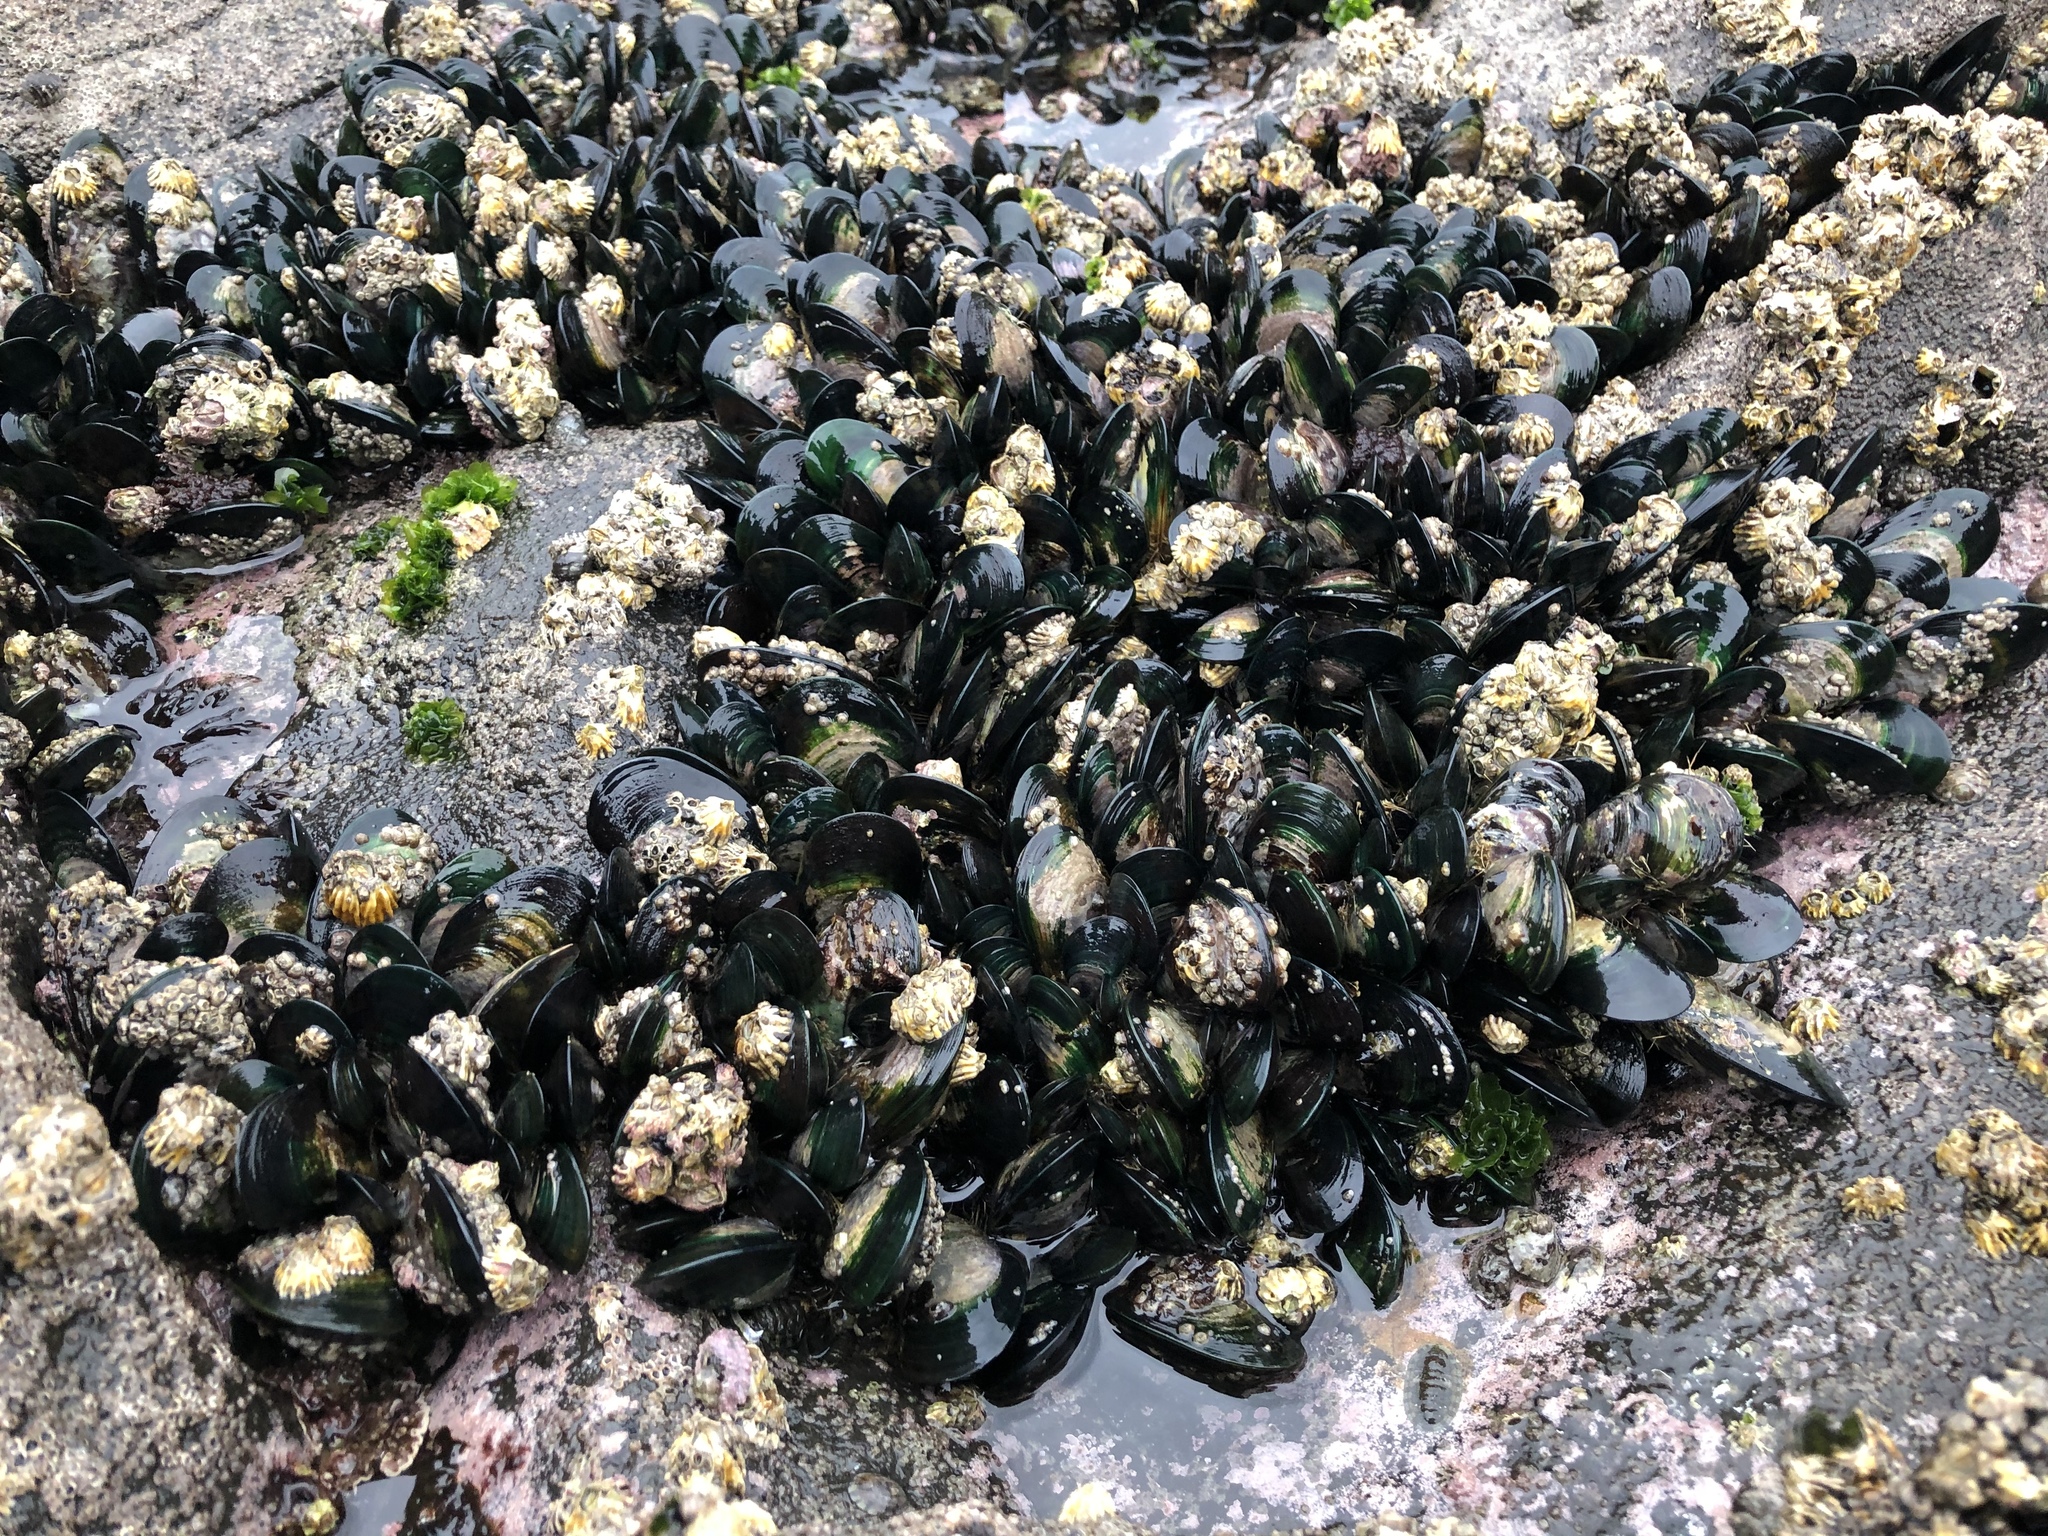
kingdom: Animalia
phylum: Mollusca
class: Bivalvia
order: Mytilida
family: Mytilidae
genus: Perna
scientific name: Perna canaliculus
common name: New zealand greenshelltm
